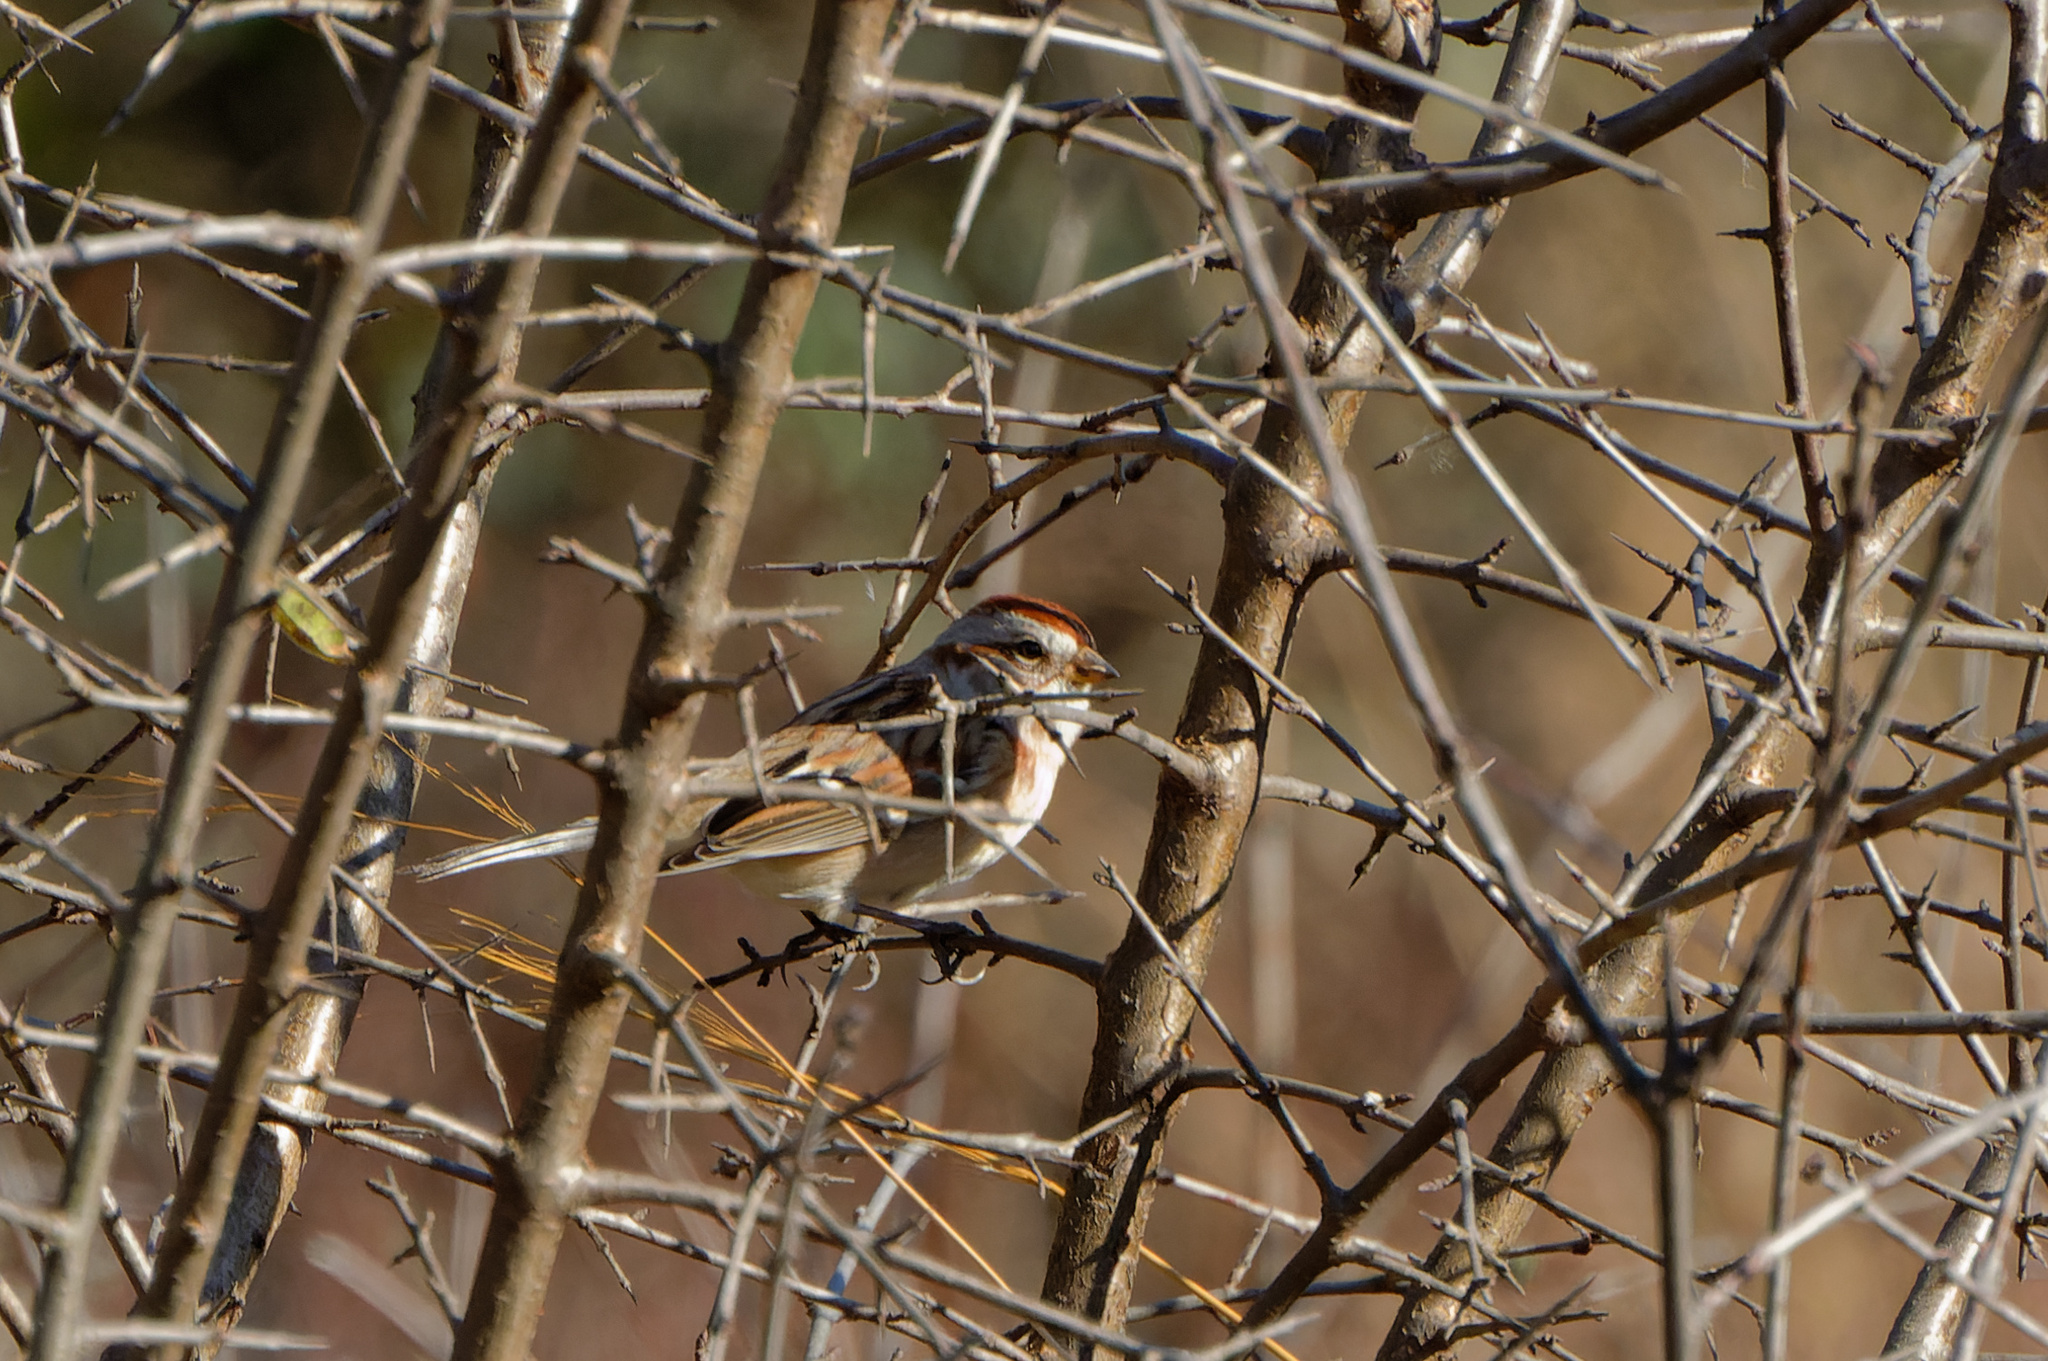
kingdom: Animalia
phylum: Chordata
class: Aves
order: Passeriformes
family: Passerellidae
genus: Spizelloides
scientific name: Spizelloides arborea
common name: American tree sparrow
